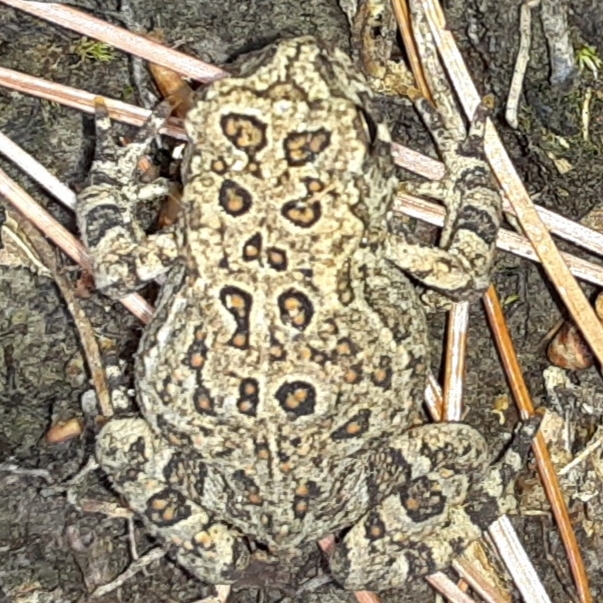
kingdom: Animalia
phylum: Chordata
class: Amphibia
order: Anura
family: Bufonidae
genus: Anaxyrus
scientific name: Anaxyrus americanus
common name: American toad
